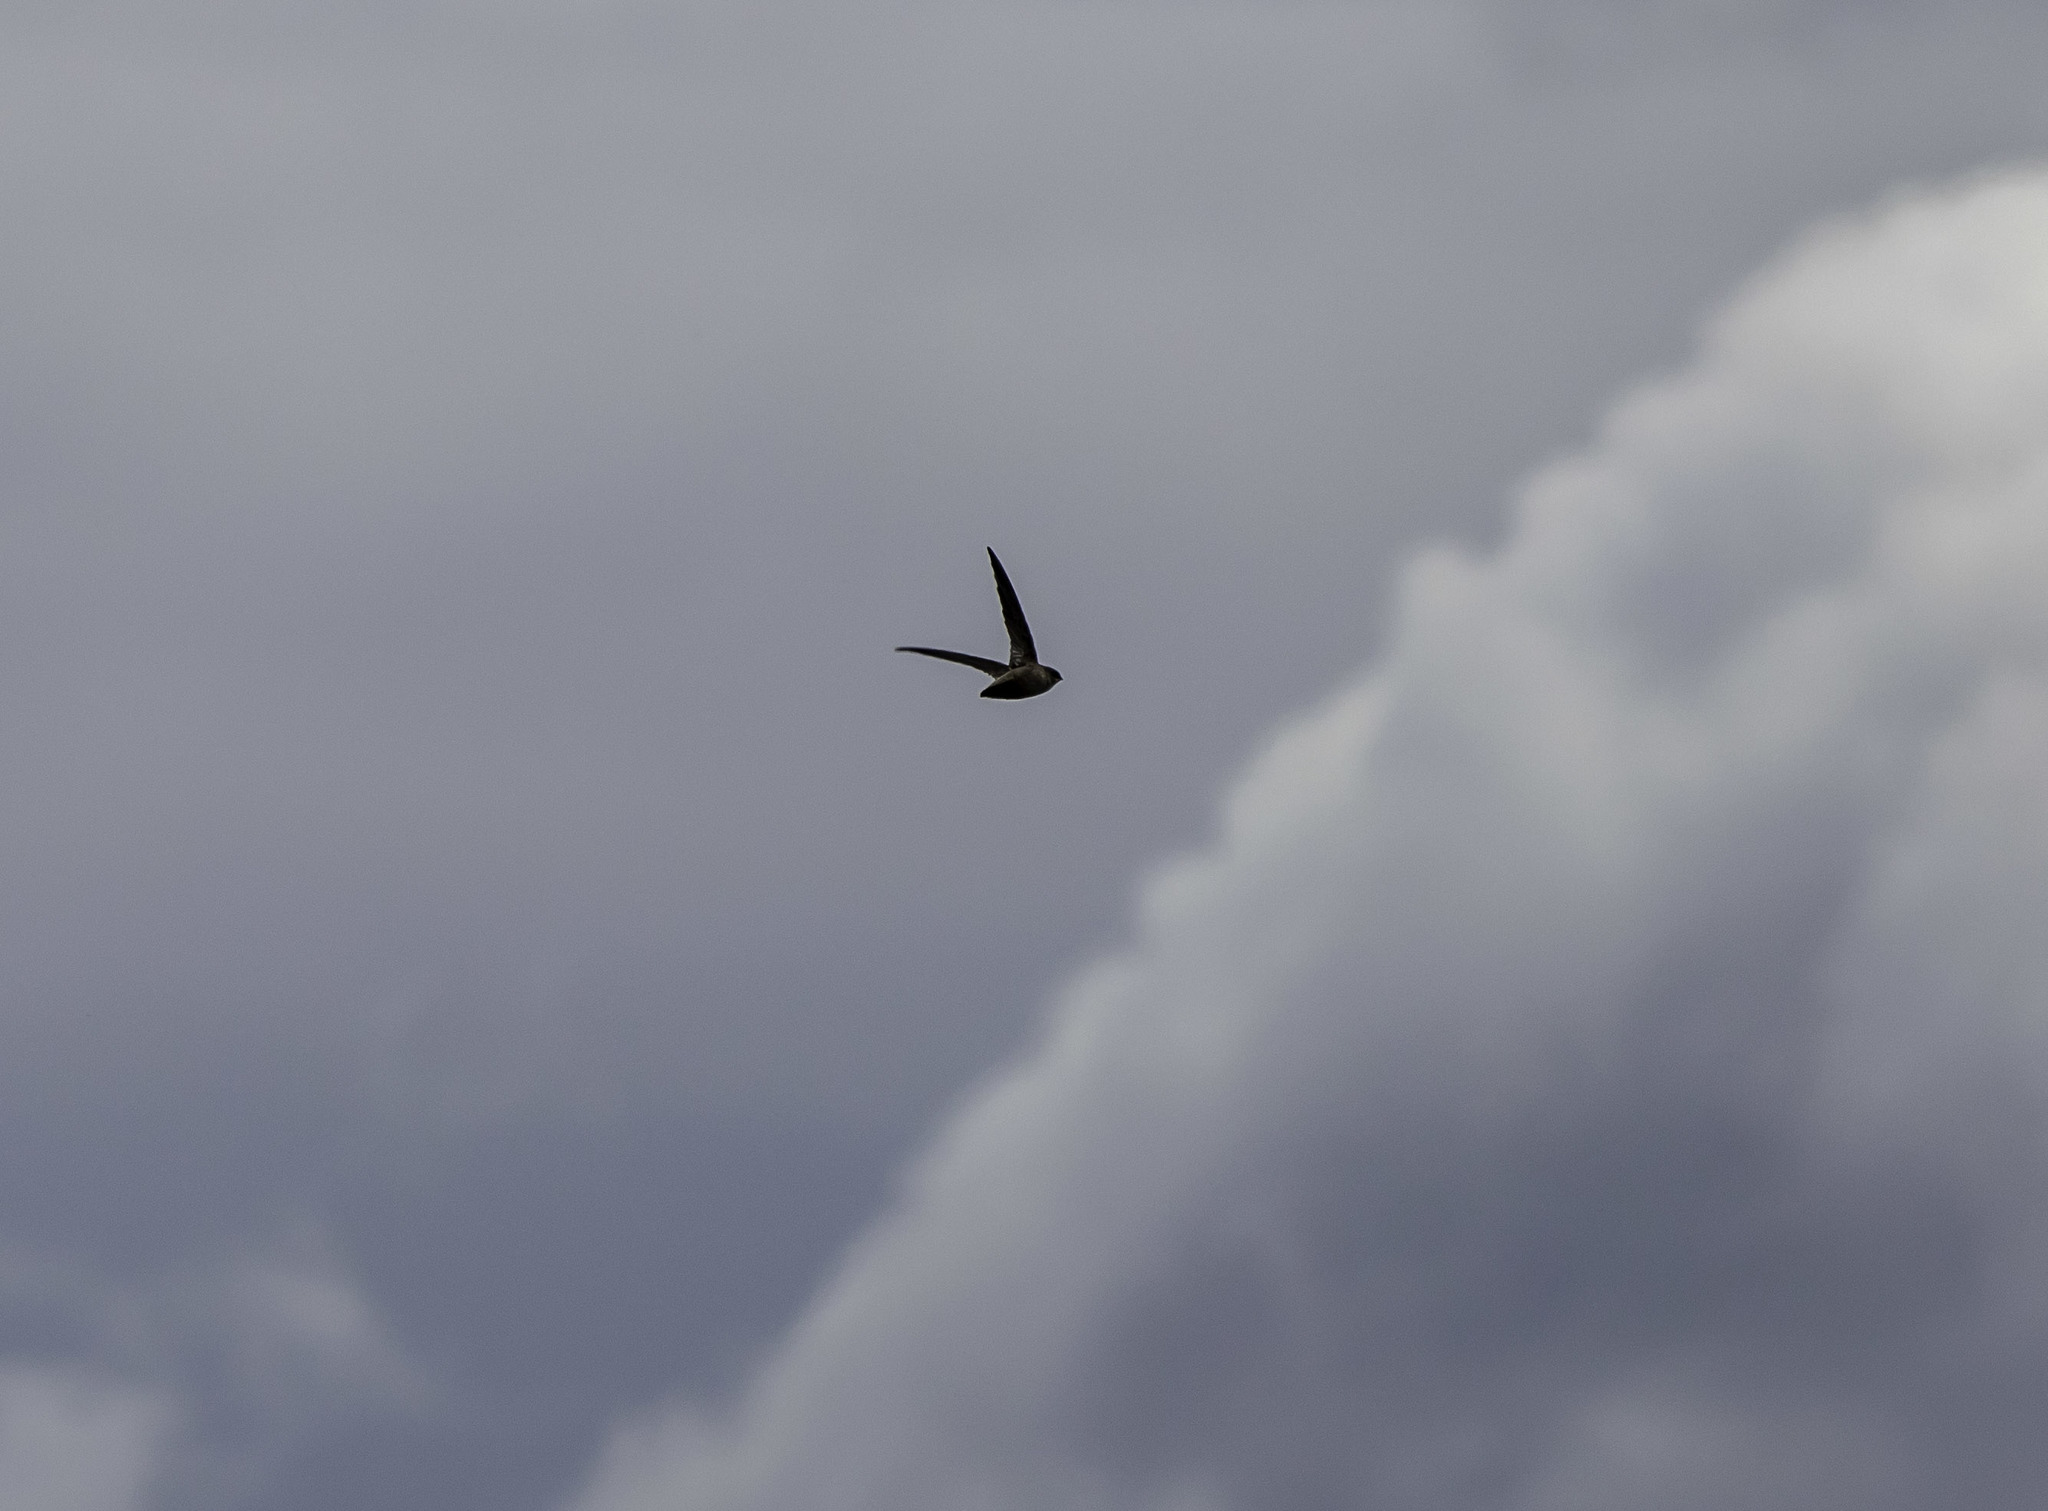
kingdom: Animalia
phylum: Chordata
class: Aves
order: Apodiformes
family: Apodidae
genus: Chaetura
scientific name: Chaetura vauxi
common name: Vaux's swift
